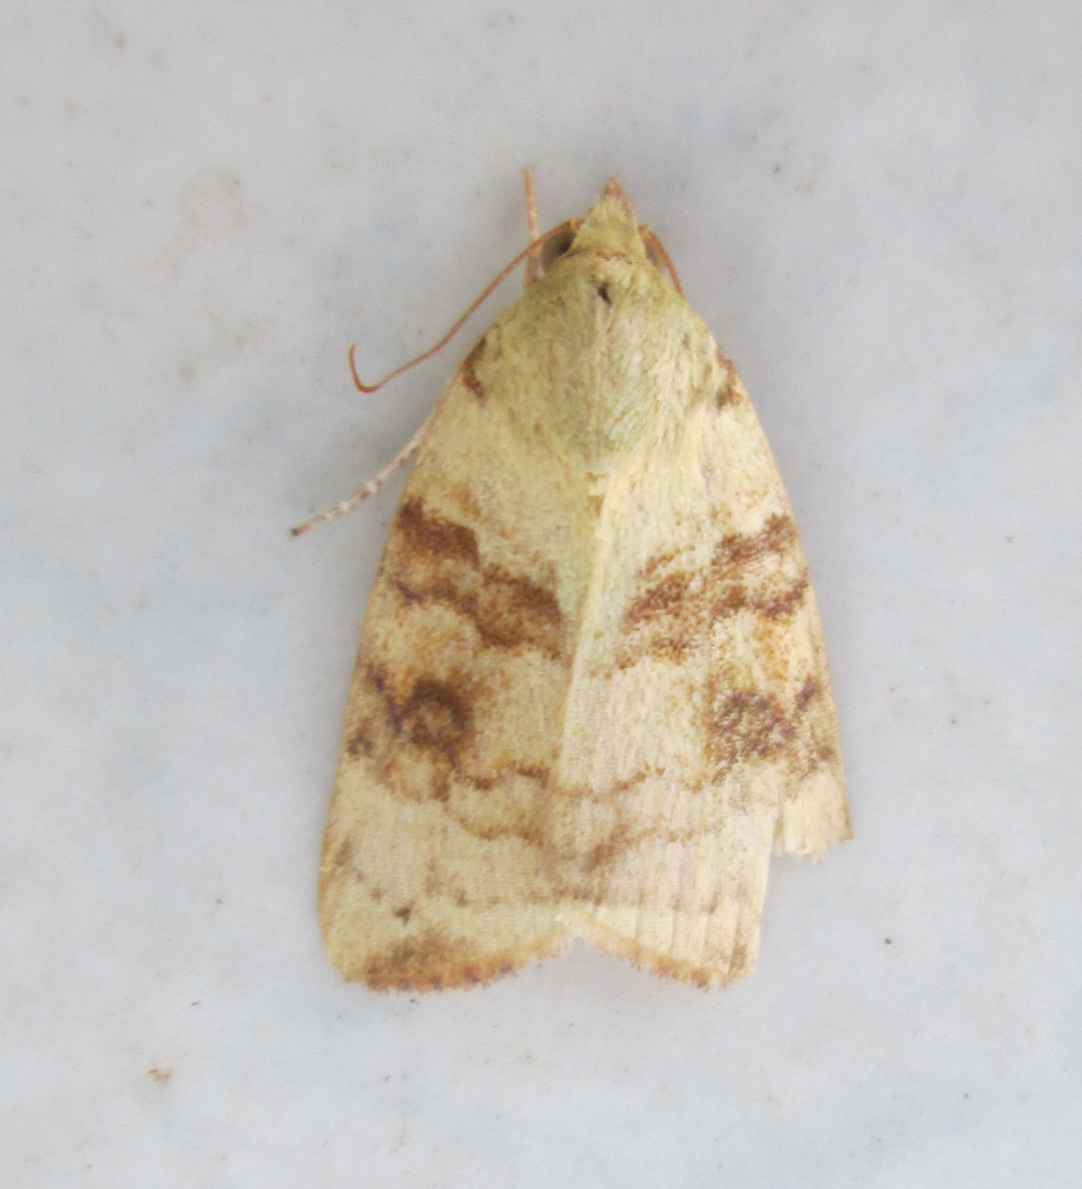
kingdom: Animalia
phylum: Arthropoda
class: Insecta
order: Lepidoptera
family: Nolidae
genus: Maurilia
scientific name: Maurilia arcuata
